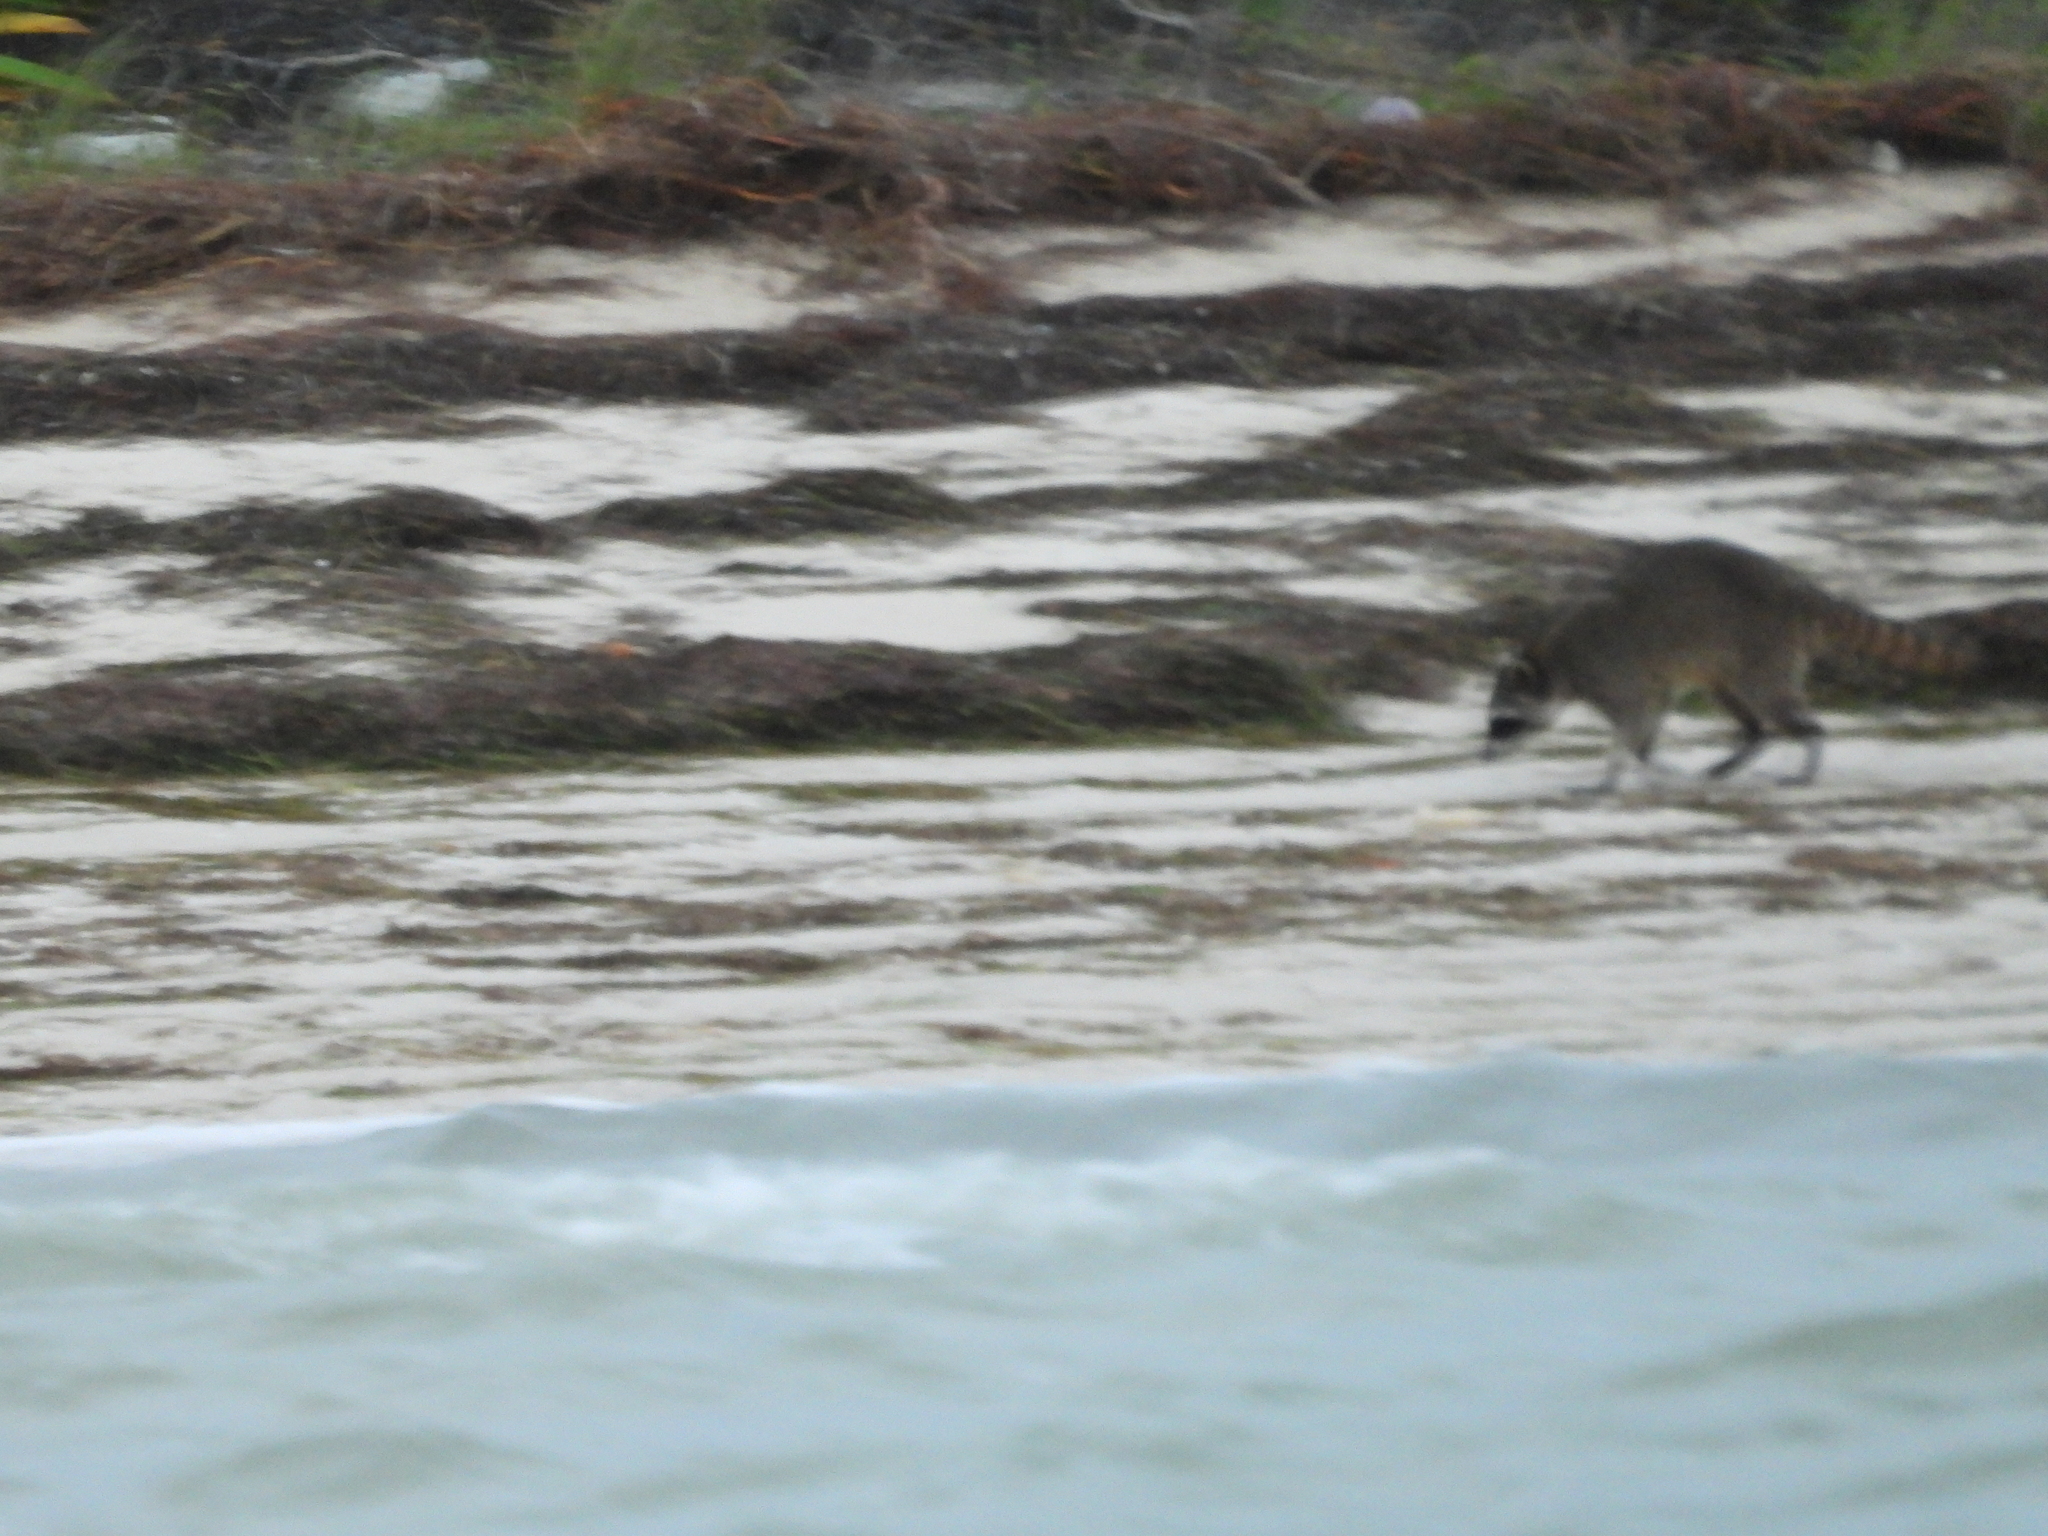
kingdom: Animalia
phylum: Chordata
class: Mammalia
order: Carnivora
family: Procyonidae
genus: Procyon
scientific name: Procyon lotor
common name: Raccoon
